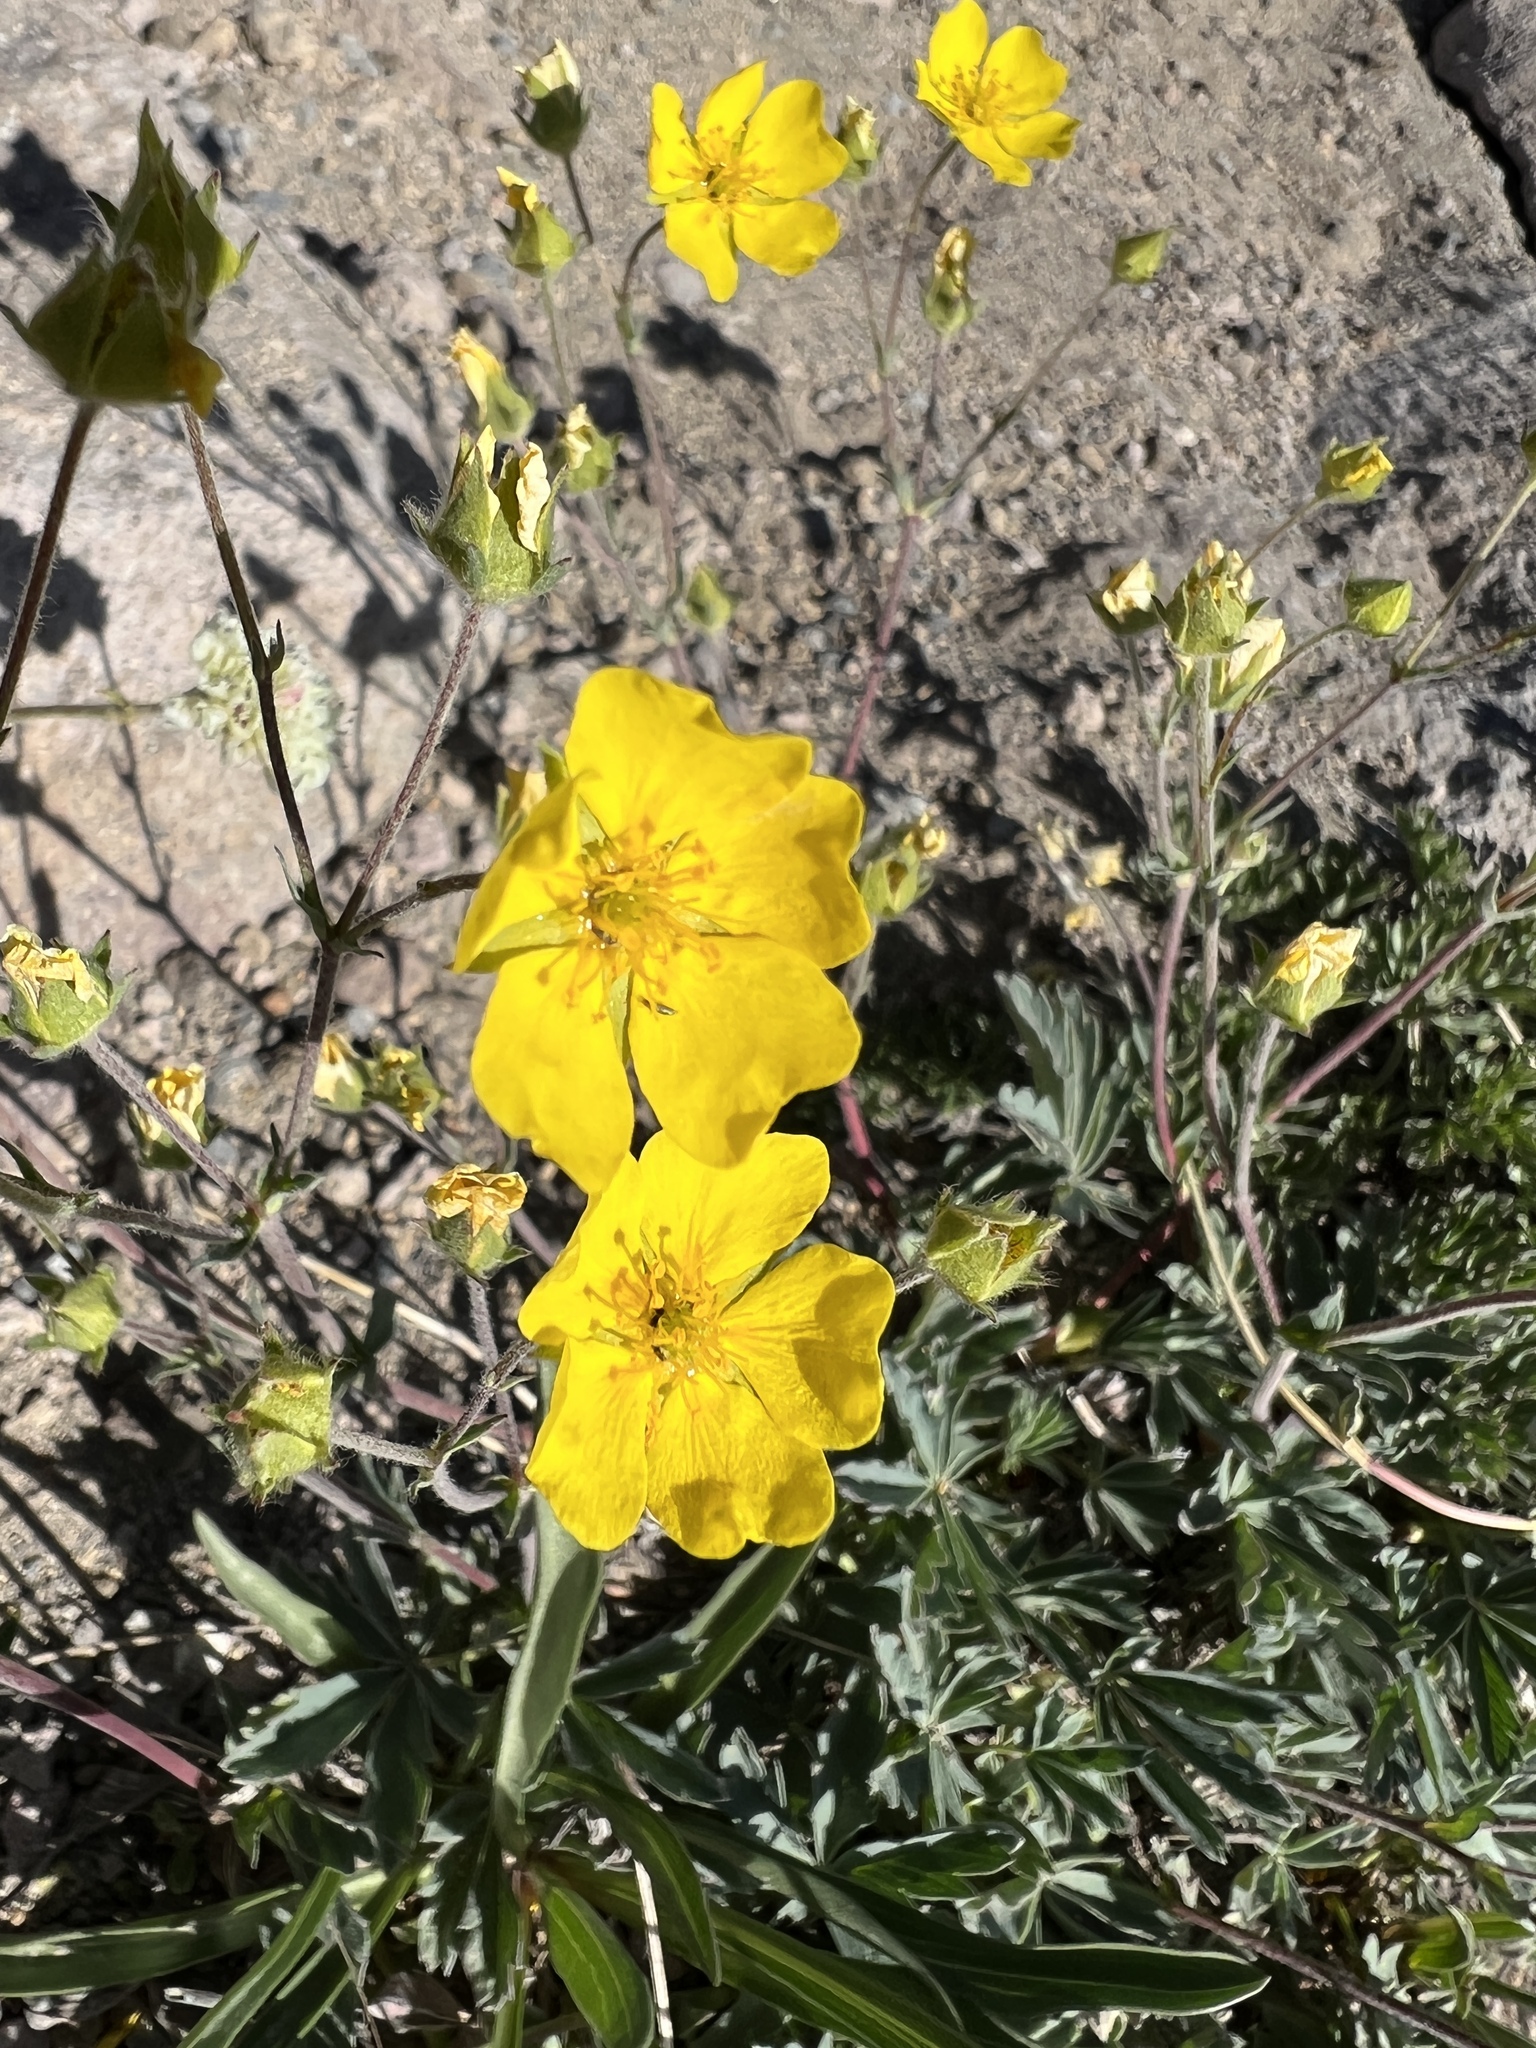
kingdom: Plantae
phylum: Tracheophyta
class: Magnoliopsida
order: Rosales
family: Rosaceae
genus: Potentilla
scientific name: Potentilla glaucophylla
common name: Blue-leaved cinquefoil
